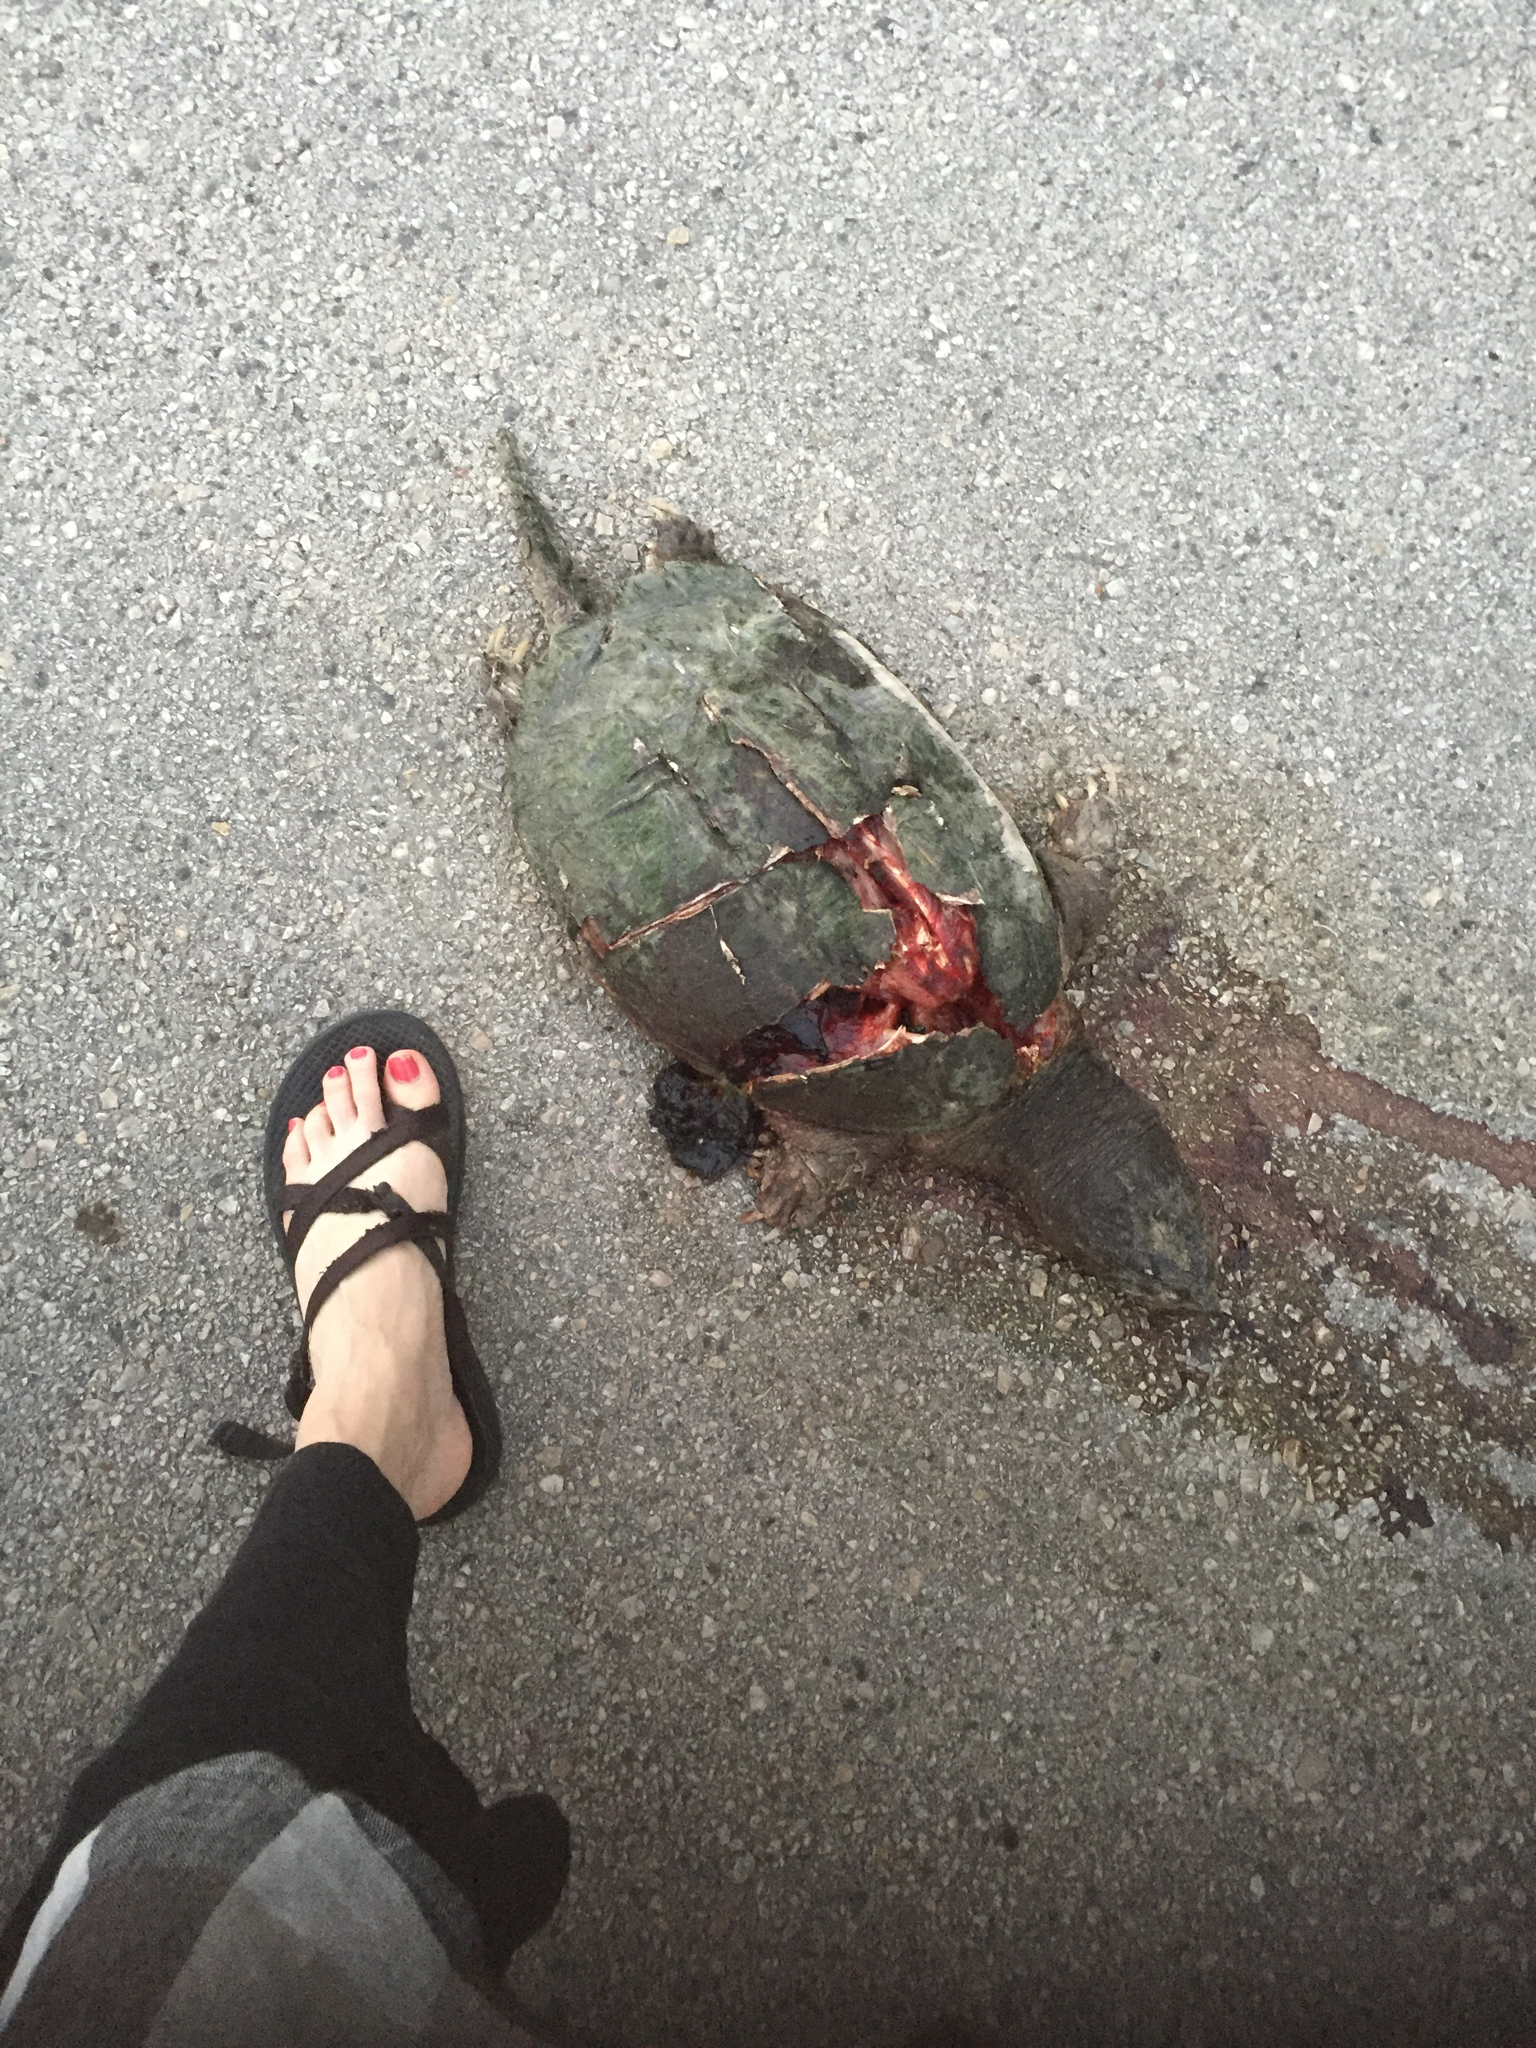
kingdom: Animalia
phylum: Chordata
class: Testudines
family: Chelydridae
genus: Chelydra
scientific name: Chelydra serpentina
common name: Common snapping turtle
